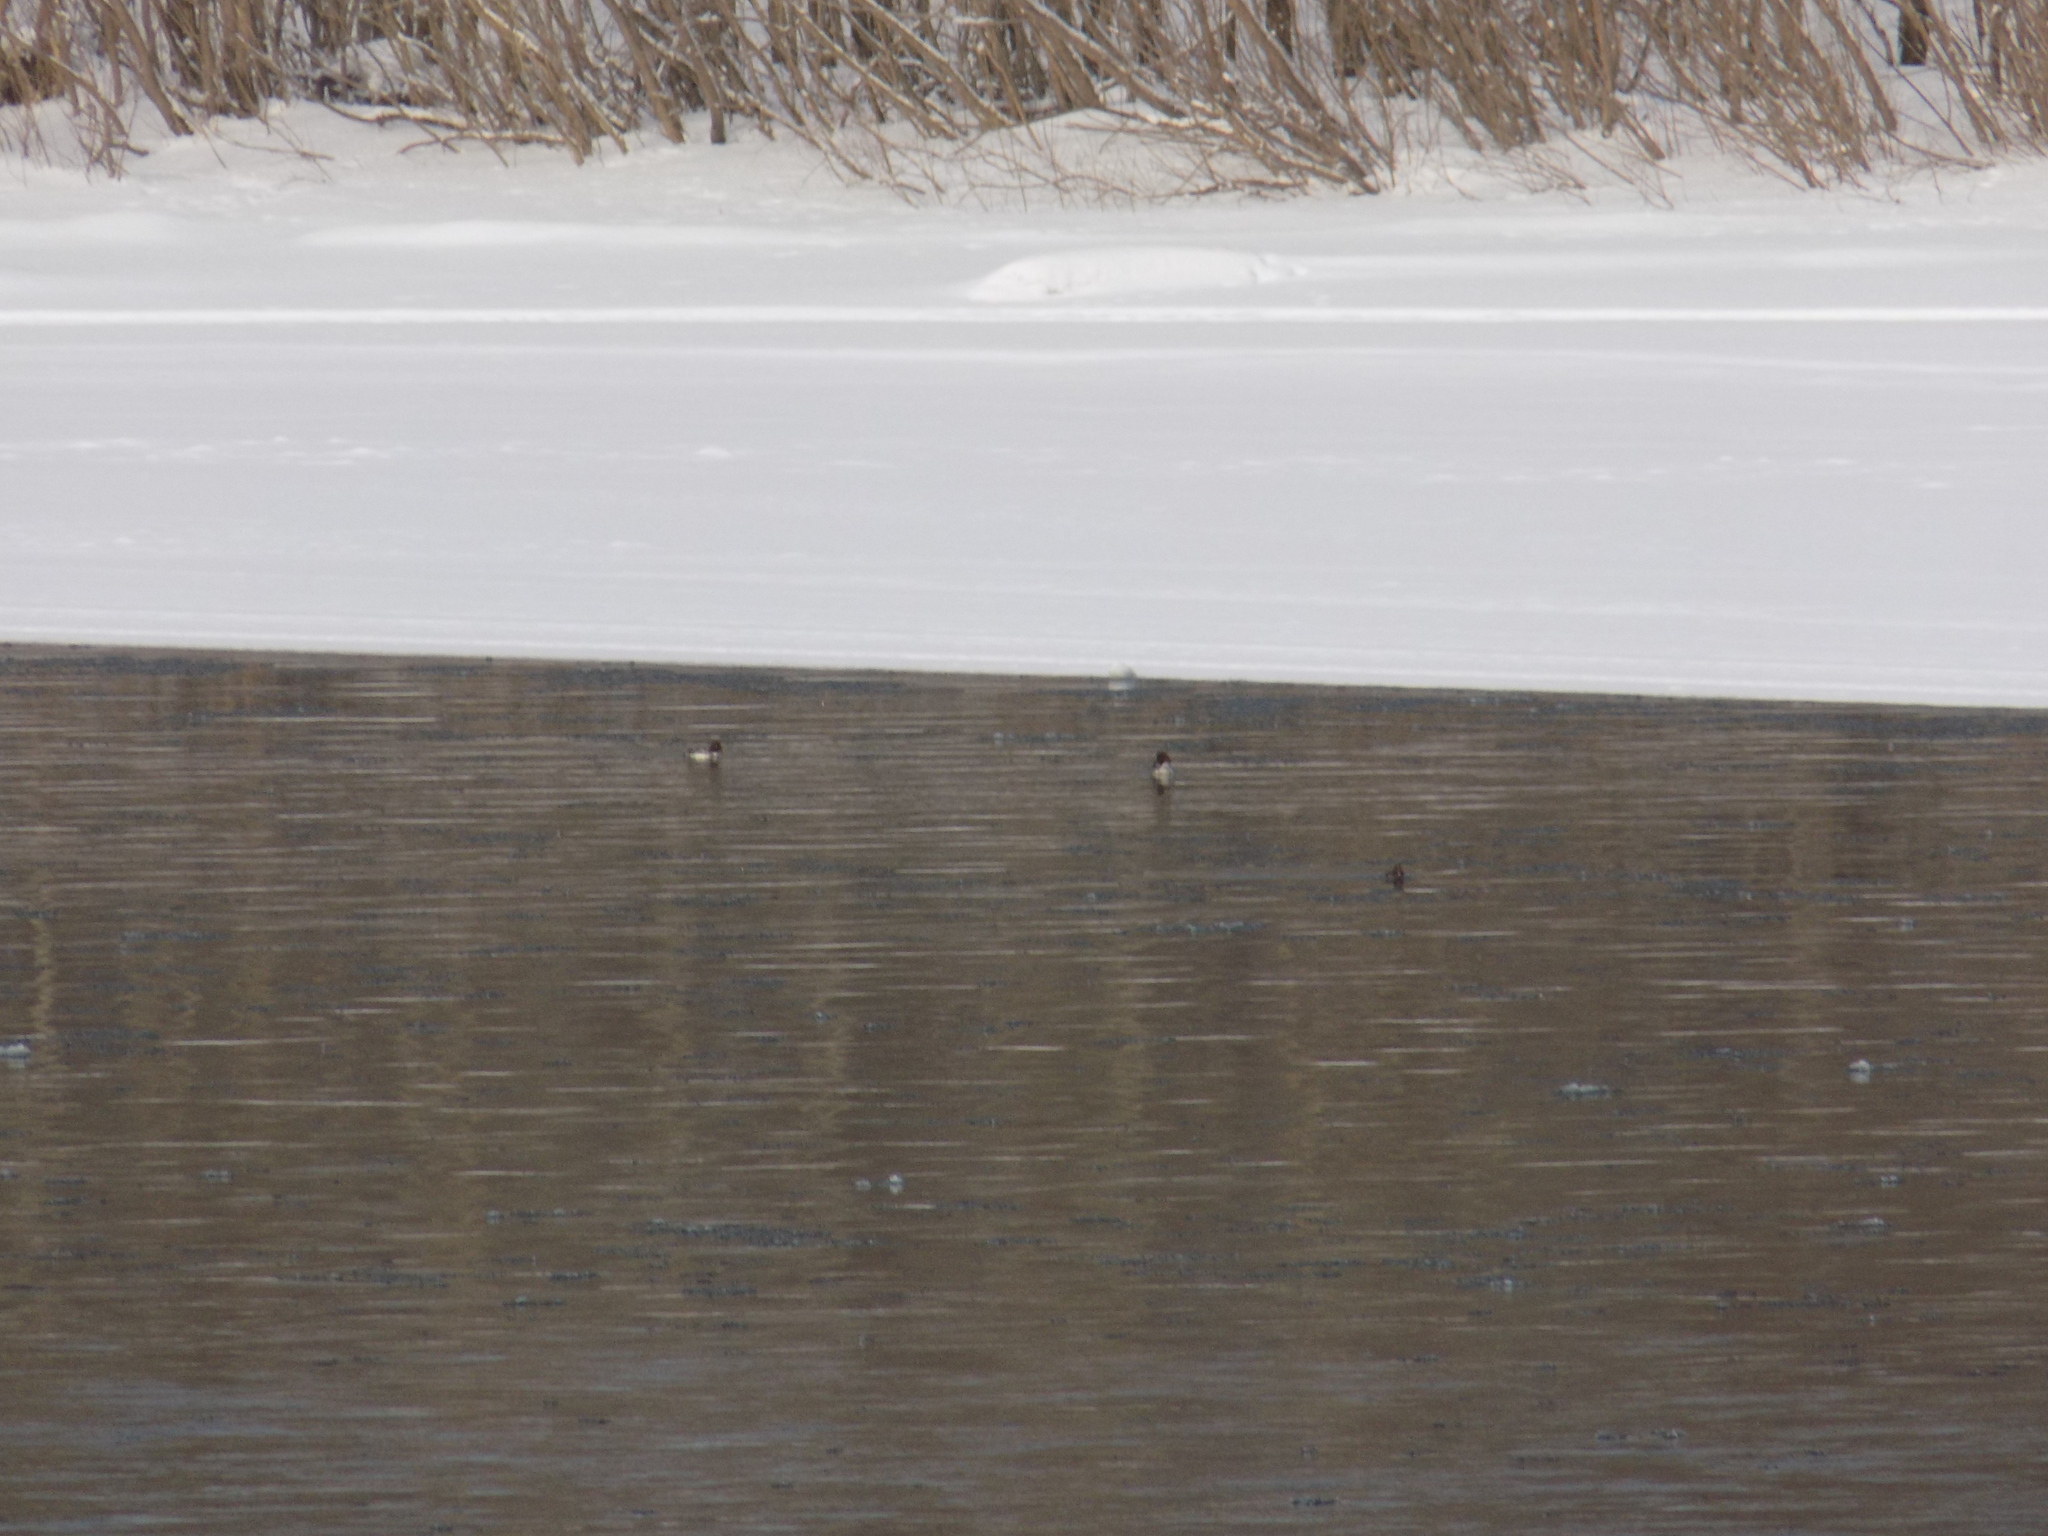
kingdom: Animalia
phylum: Chordata
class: Aves
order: Anseriformes
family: Anatidae
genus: Bucephala
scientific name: Bucephala clangula
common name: Common goldeneye
